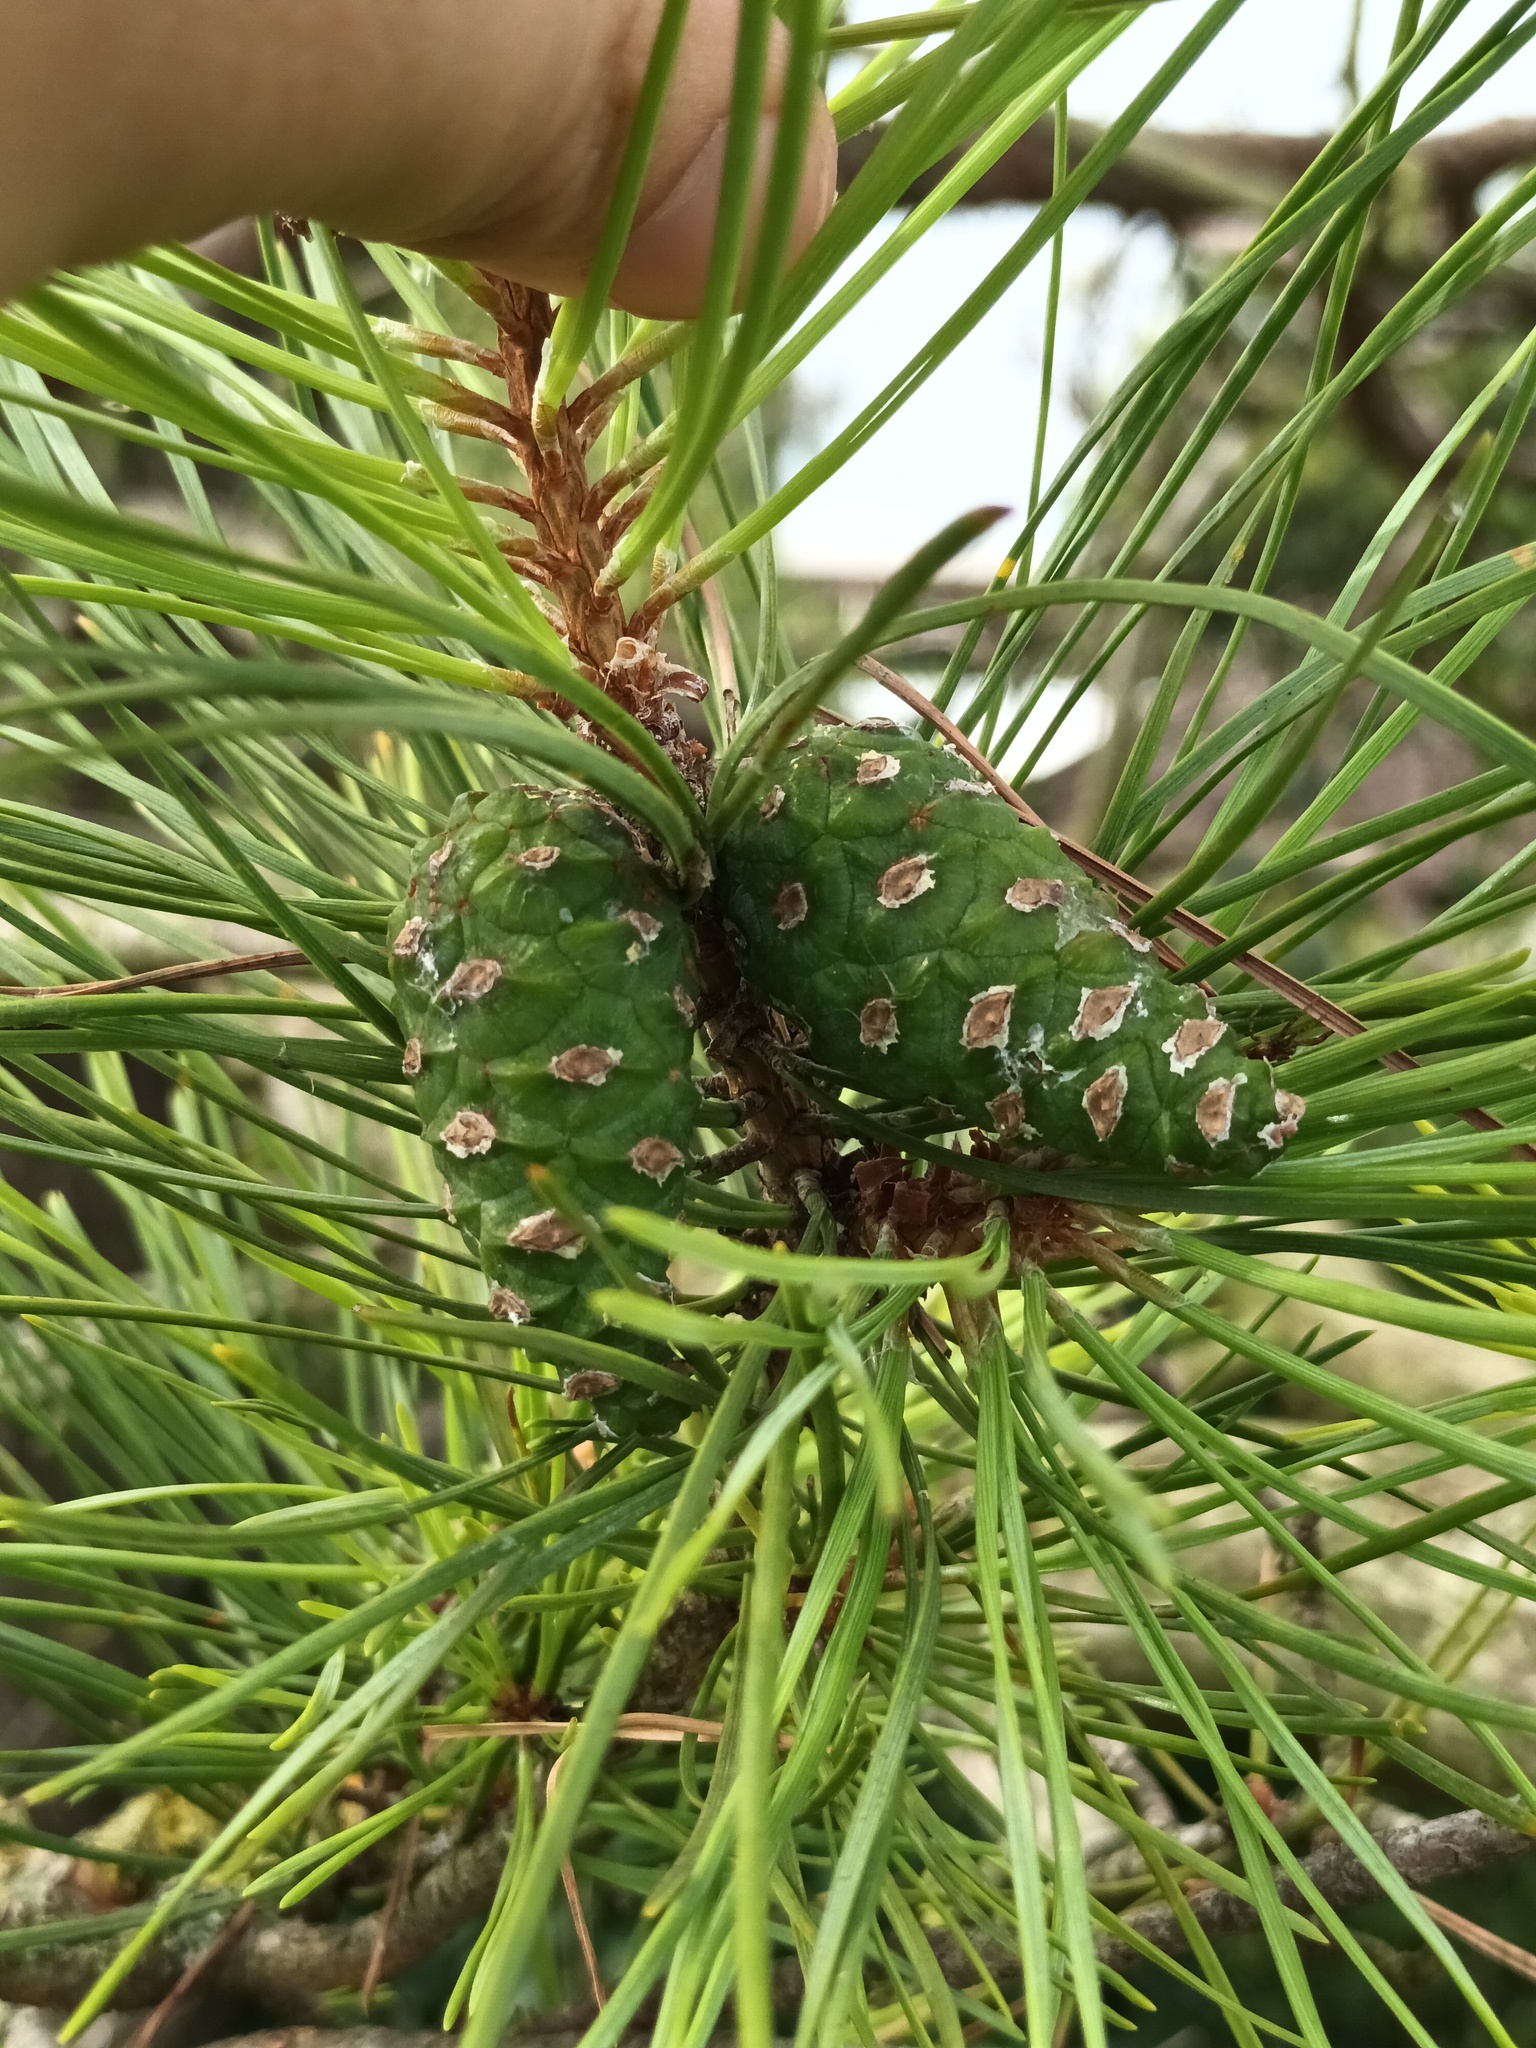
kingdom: Plantae
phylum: Tracheophyta
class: Pinopsida
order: Pinales
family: Pinaceae
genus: Pinus
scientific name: Pinus sylvestris
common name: Scots pine
